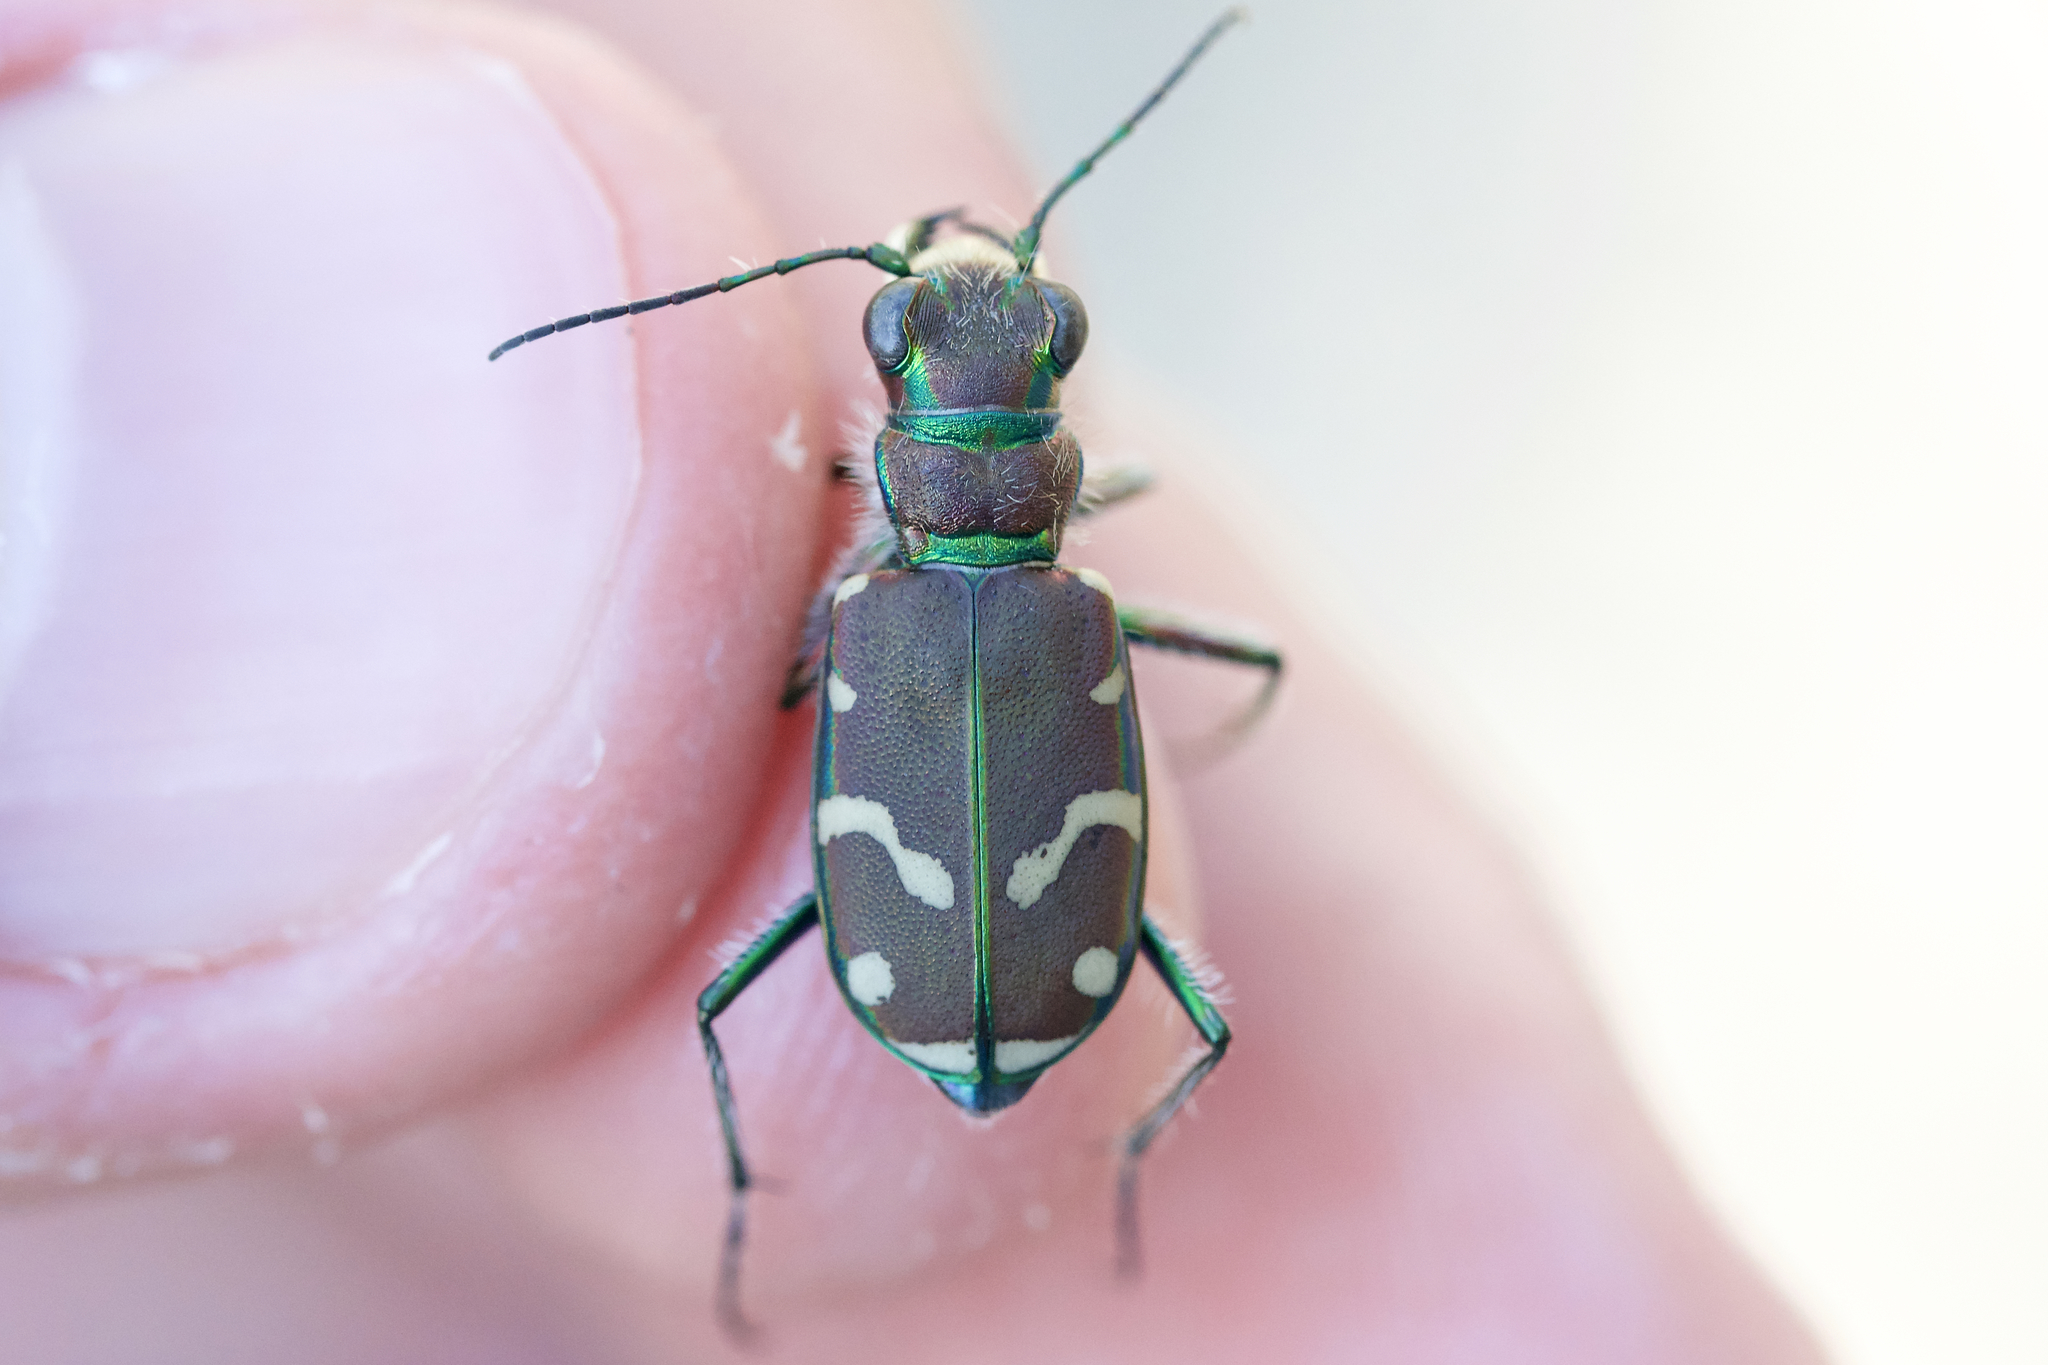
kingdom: Animalia
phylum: Arthropoda
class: Insecta
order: Coleoptera
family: Carabidae
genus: Cicindela
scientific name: Cicindela limbalis
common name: Common claybank tiger beetle
